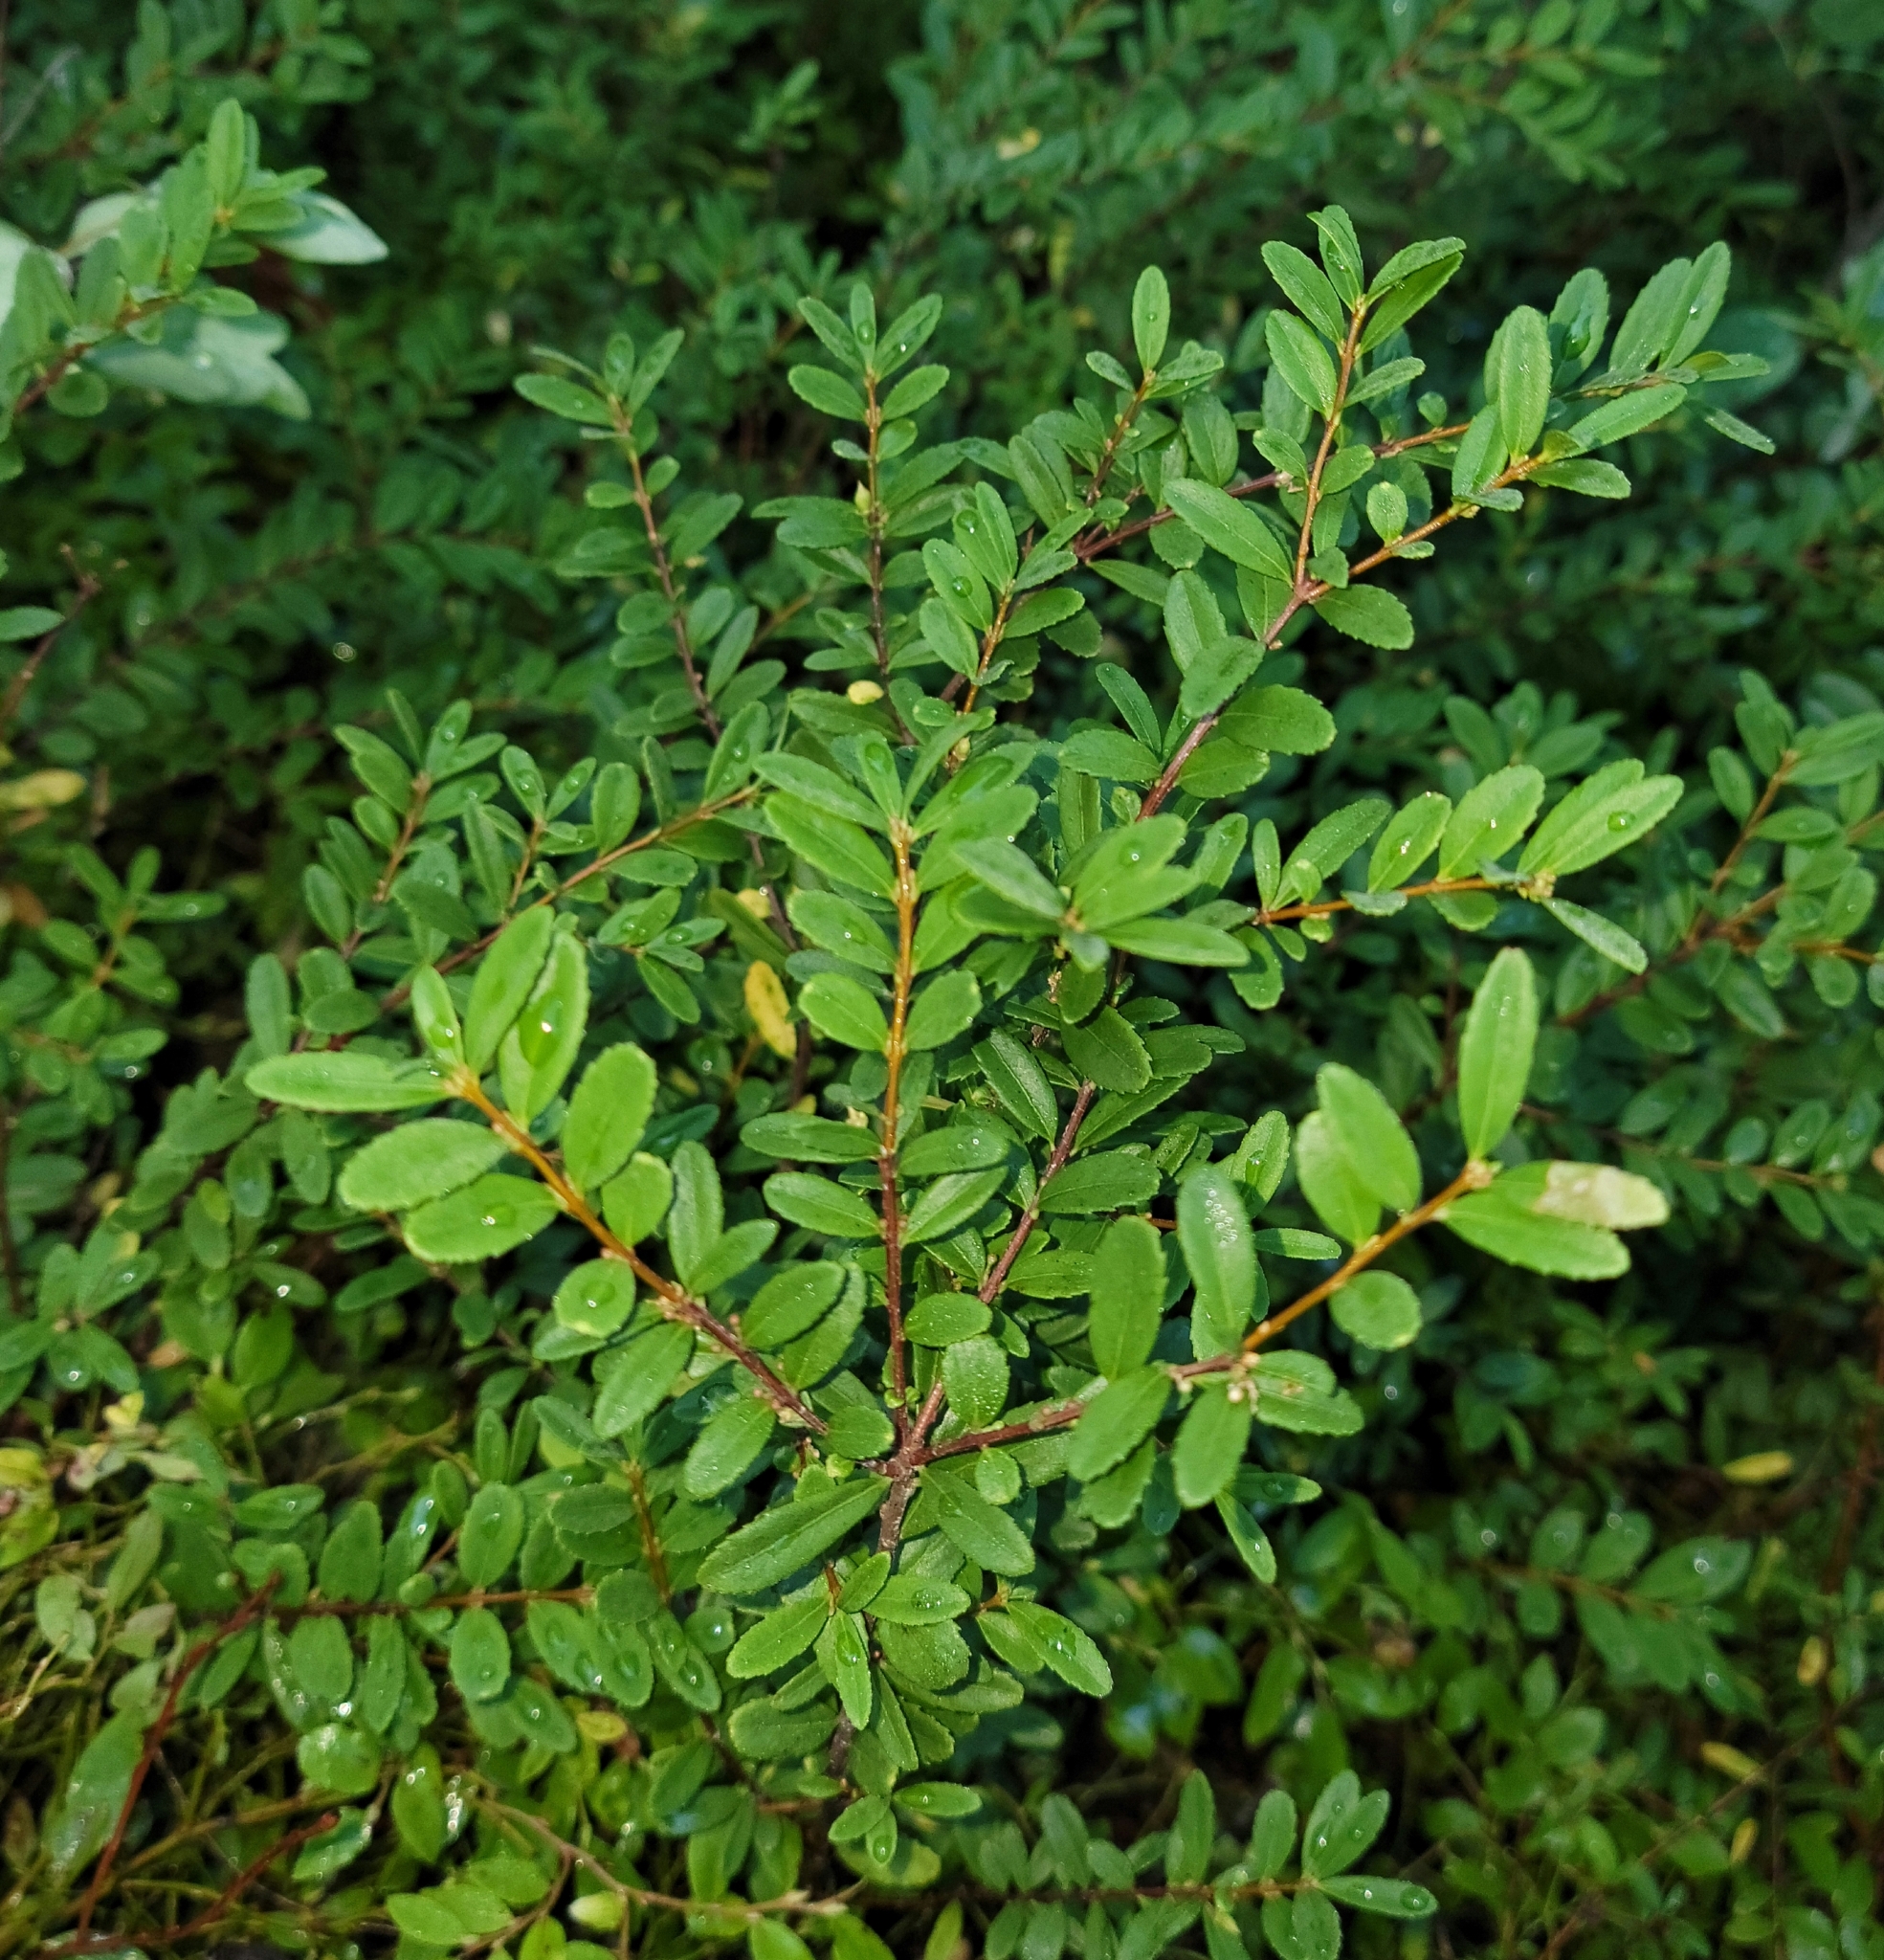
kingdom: Plantae
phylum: Tracheophyta
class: Magnoliopsida
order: Celastrales
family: Celastraceae
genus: Paxistima
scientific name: Paxistima myrsinites
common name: Mountain-lover
